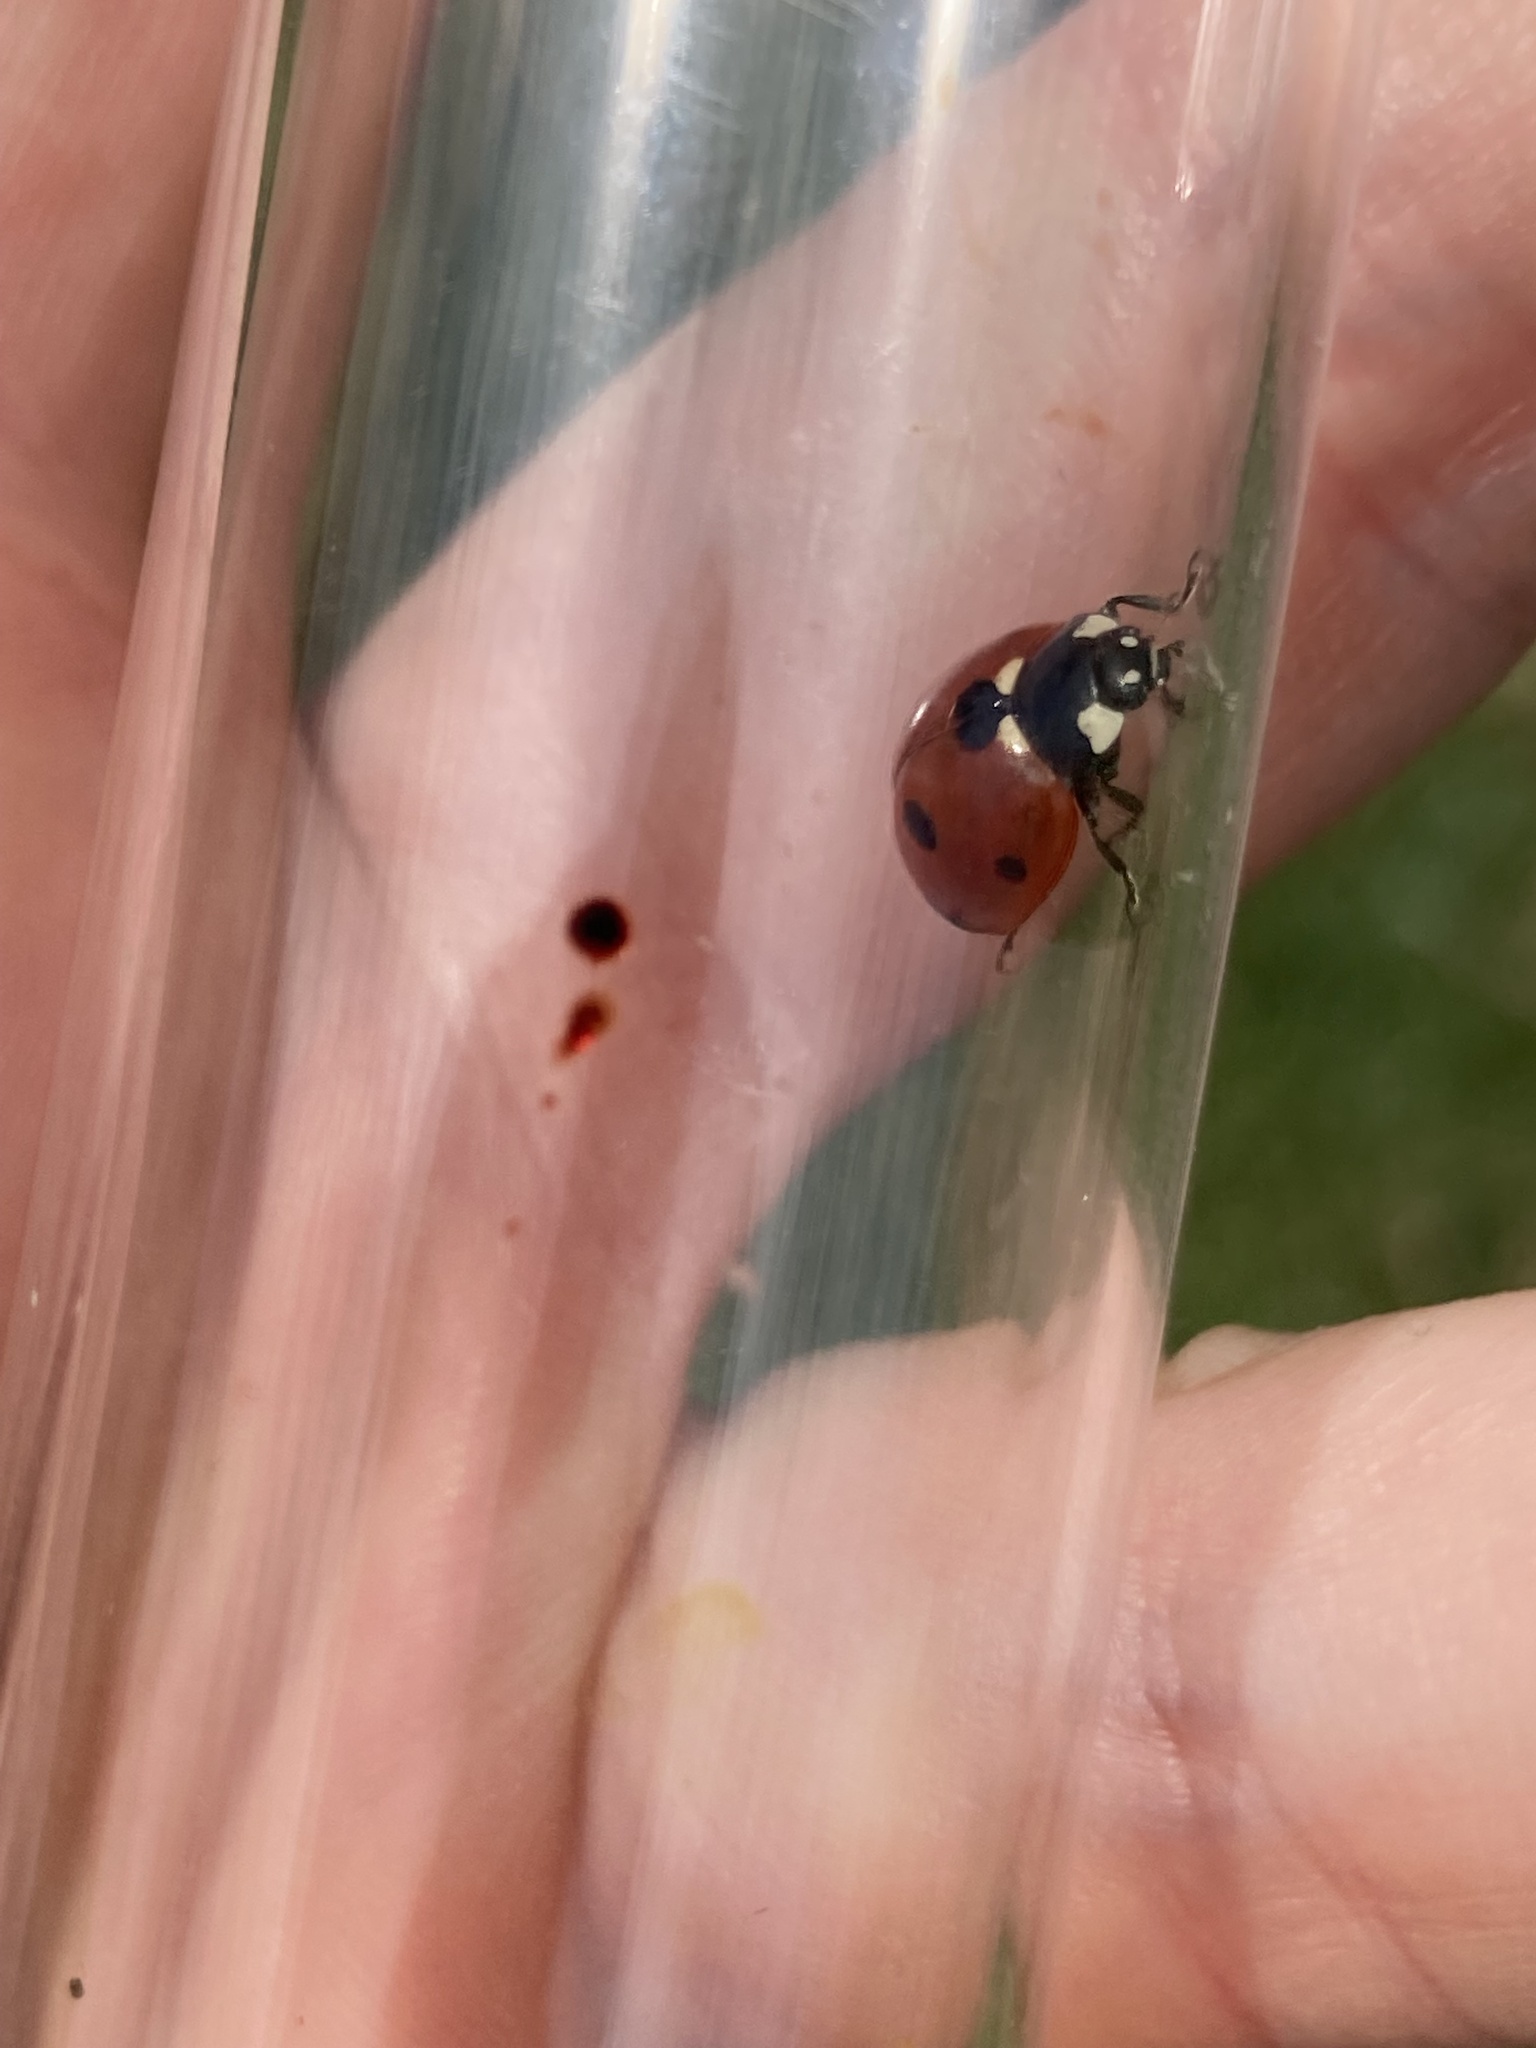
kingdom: Animalia
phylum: Arthropoda
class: Insecta
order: Coleoptera
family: Coccinellidae
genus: Coccinella
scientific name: Coccinella septempunctata
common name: Sevenspotted lady beetle
